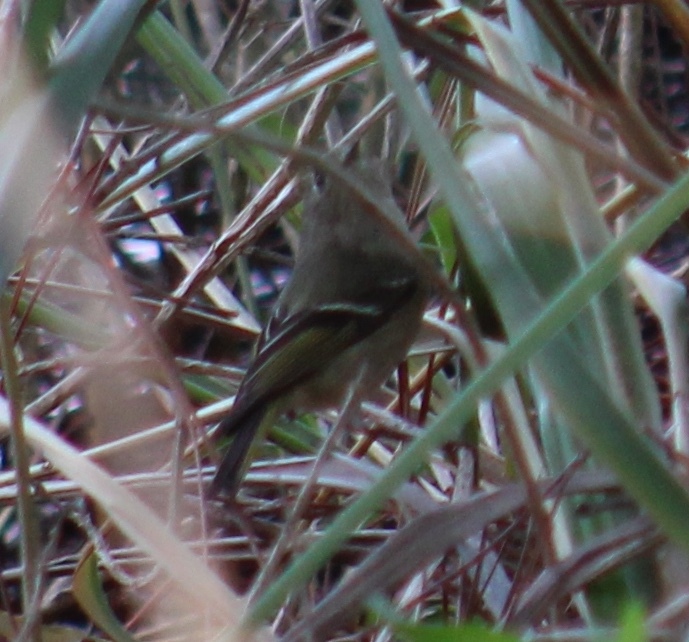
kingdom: Animalia
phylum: Chordata
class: Aves
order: Passeriformes
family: Regulidae
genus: Regulus
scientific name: Regulus calendula
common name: Ruby-crowned kinglet
